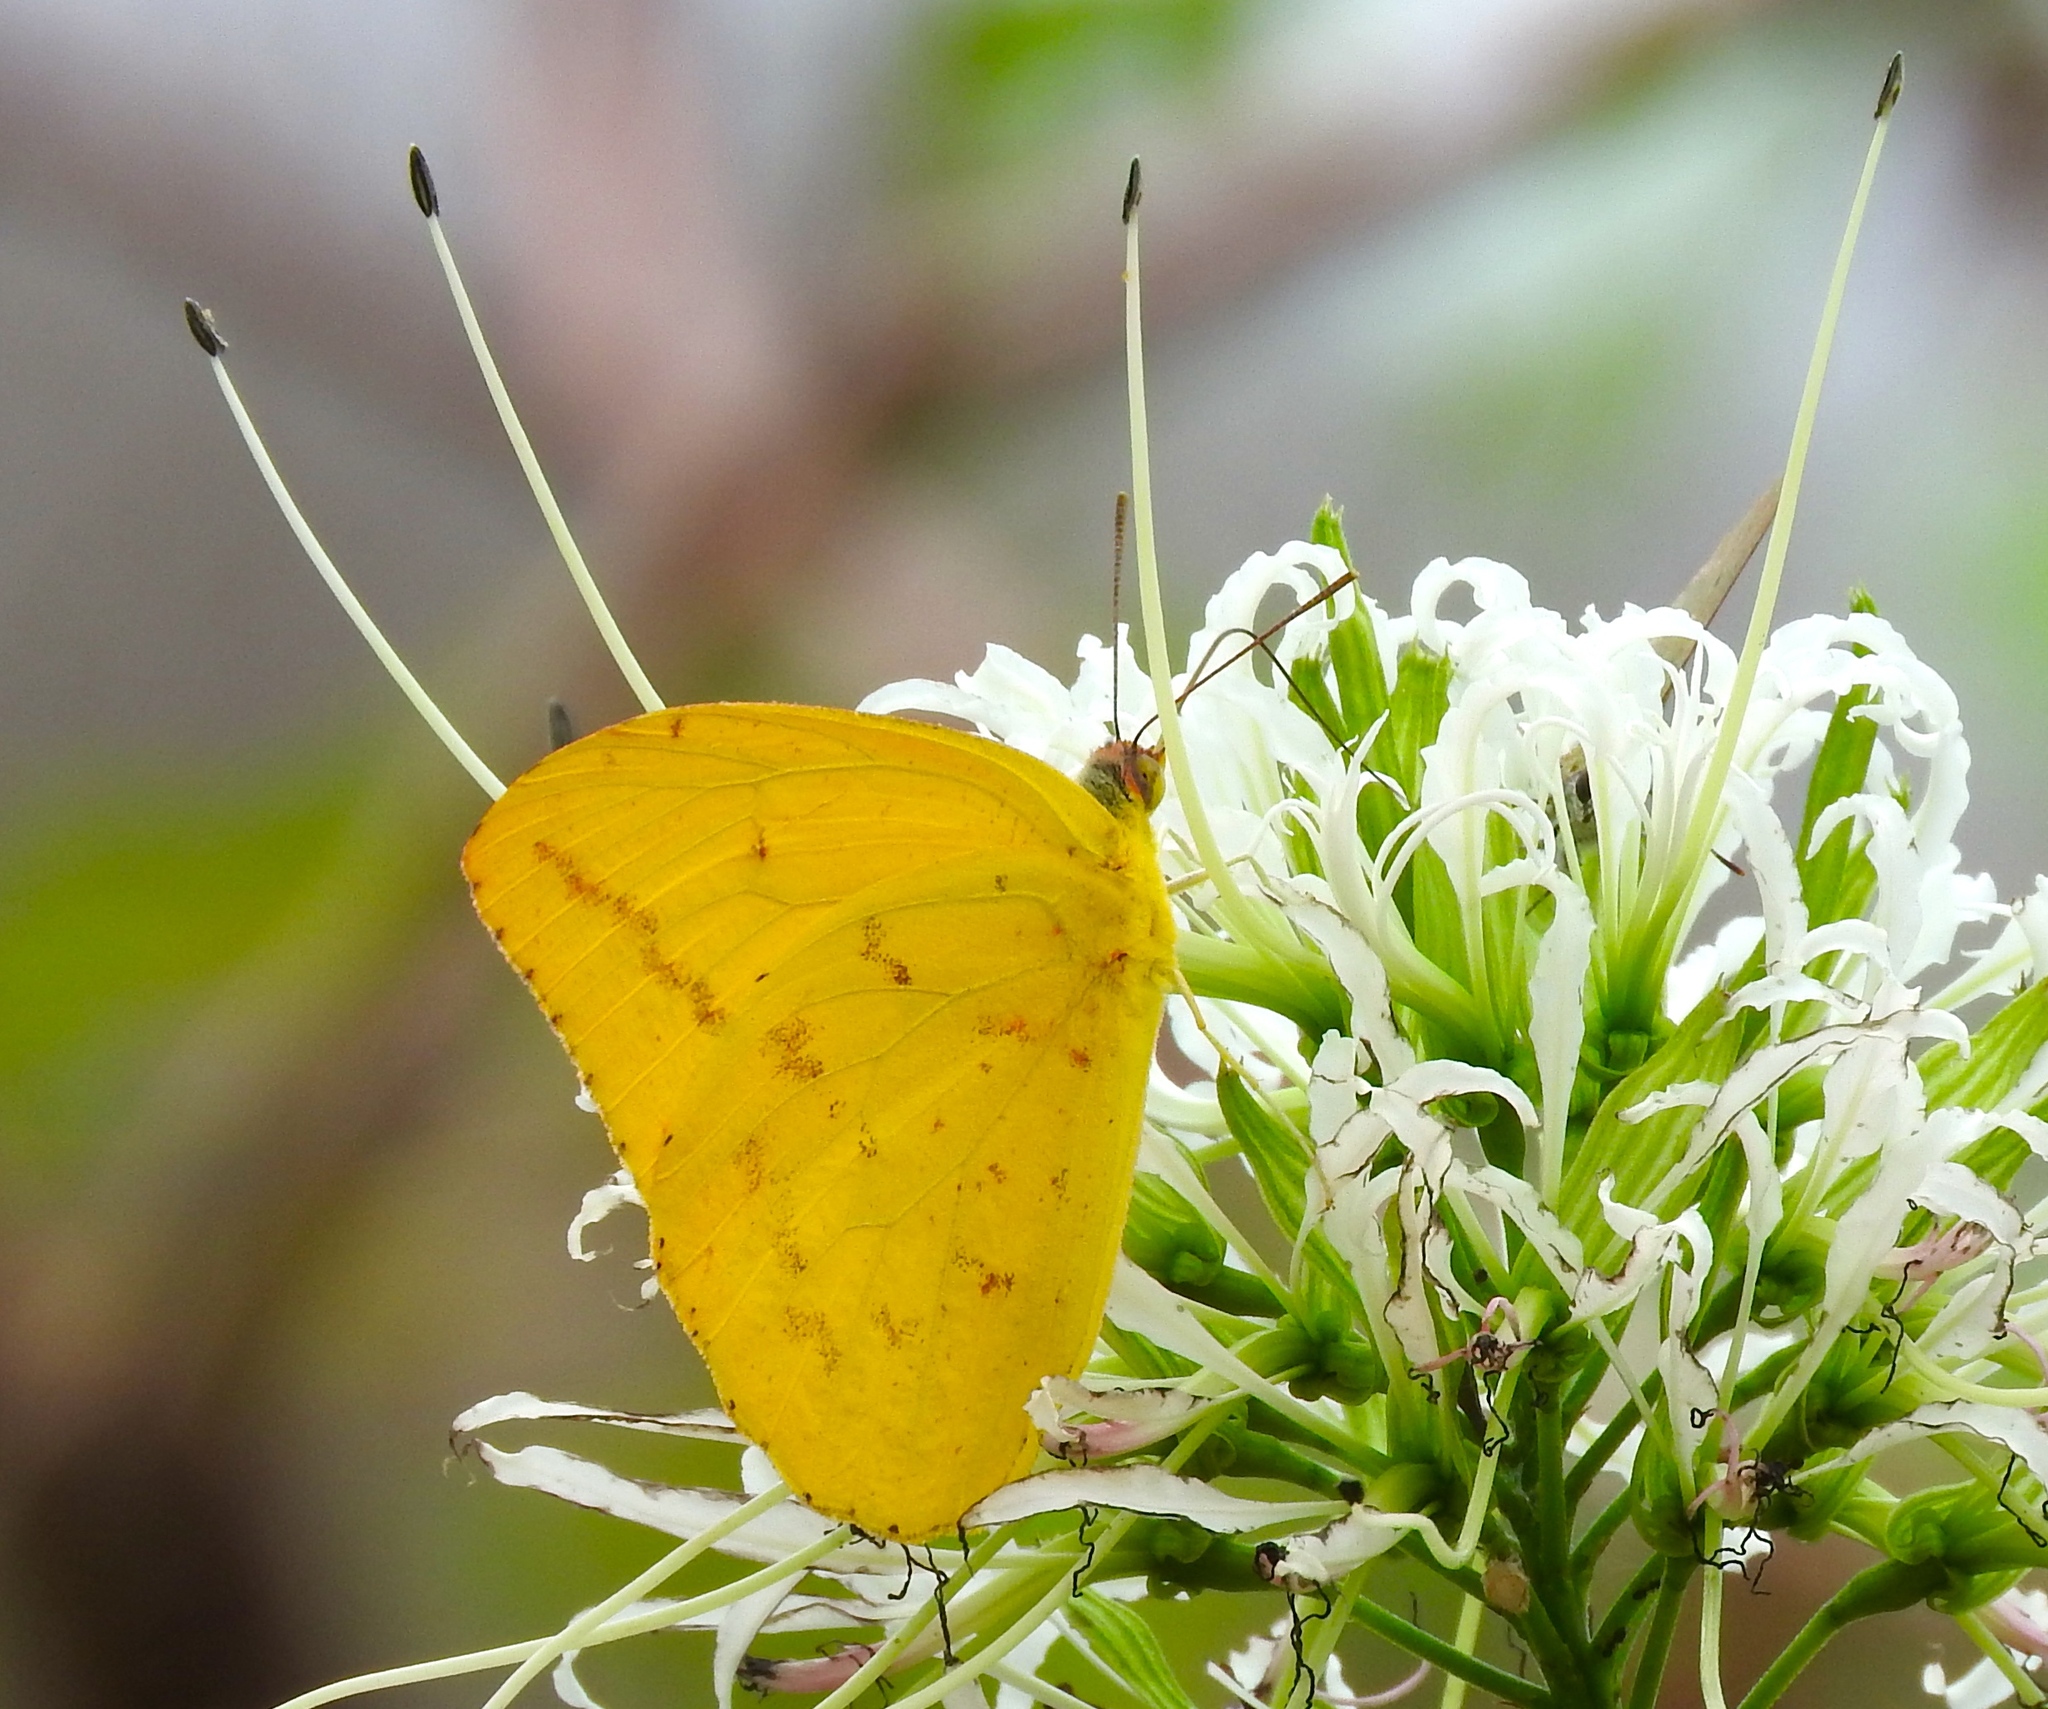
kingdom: Animalia
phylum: Arthropoda
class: Insecta
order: Lepidoptera
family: Pieridae
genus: Phoebis
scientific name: Phoebis agarithe
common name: Large orange sulphur
